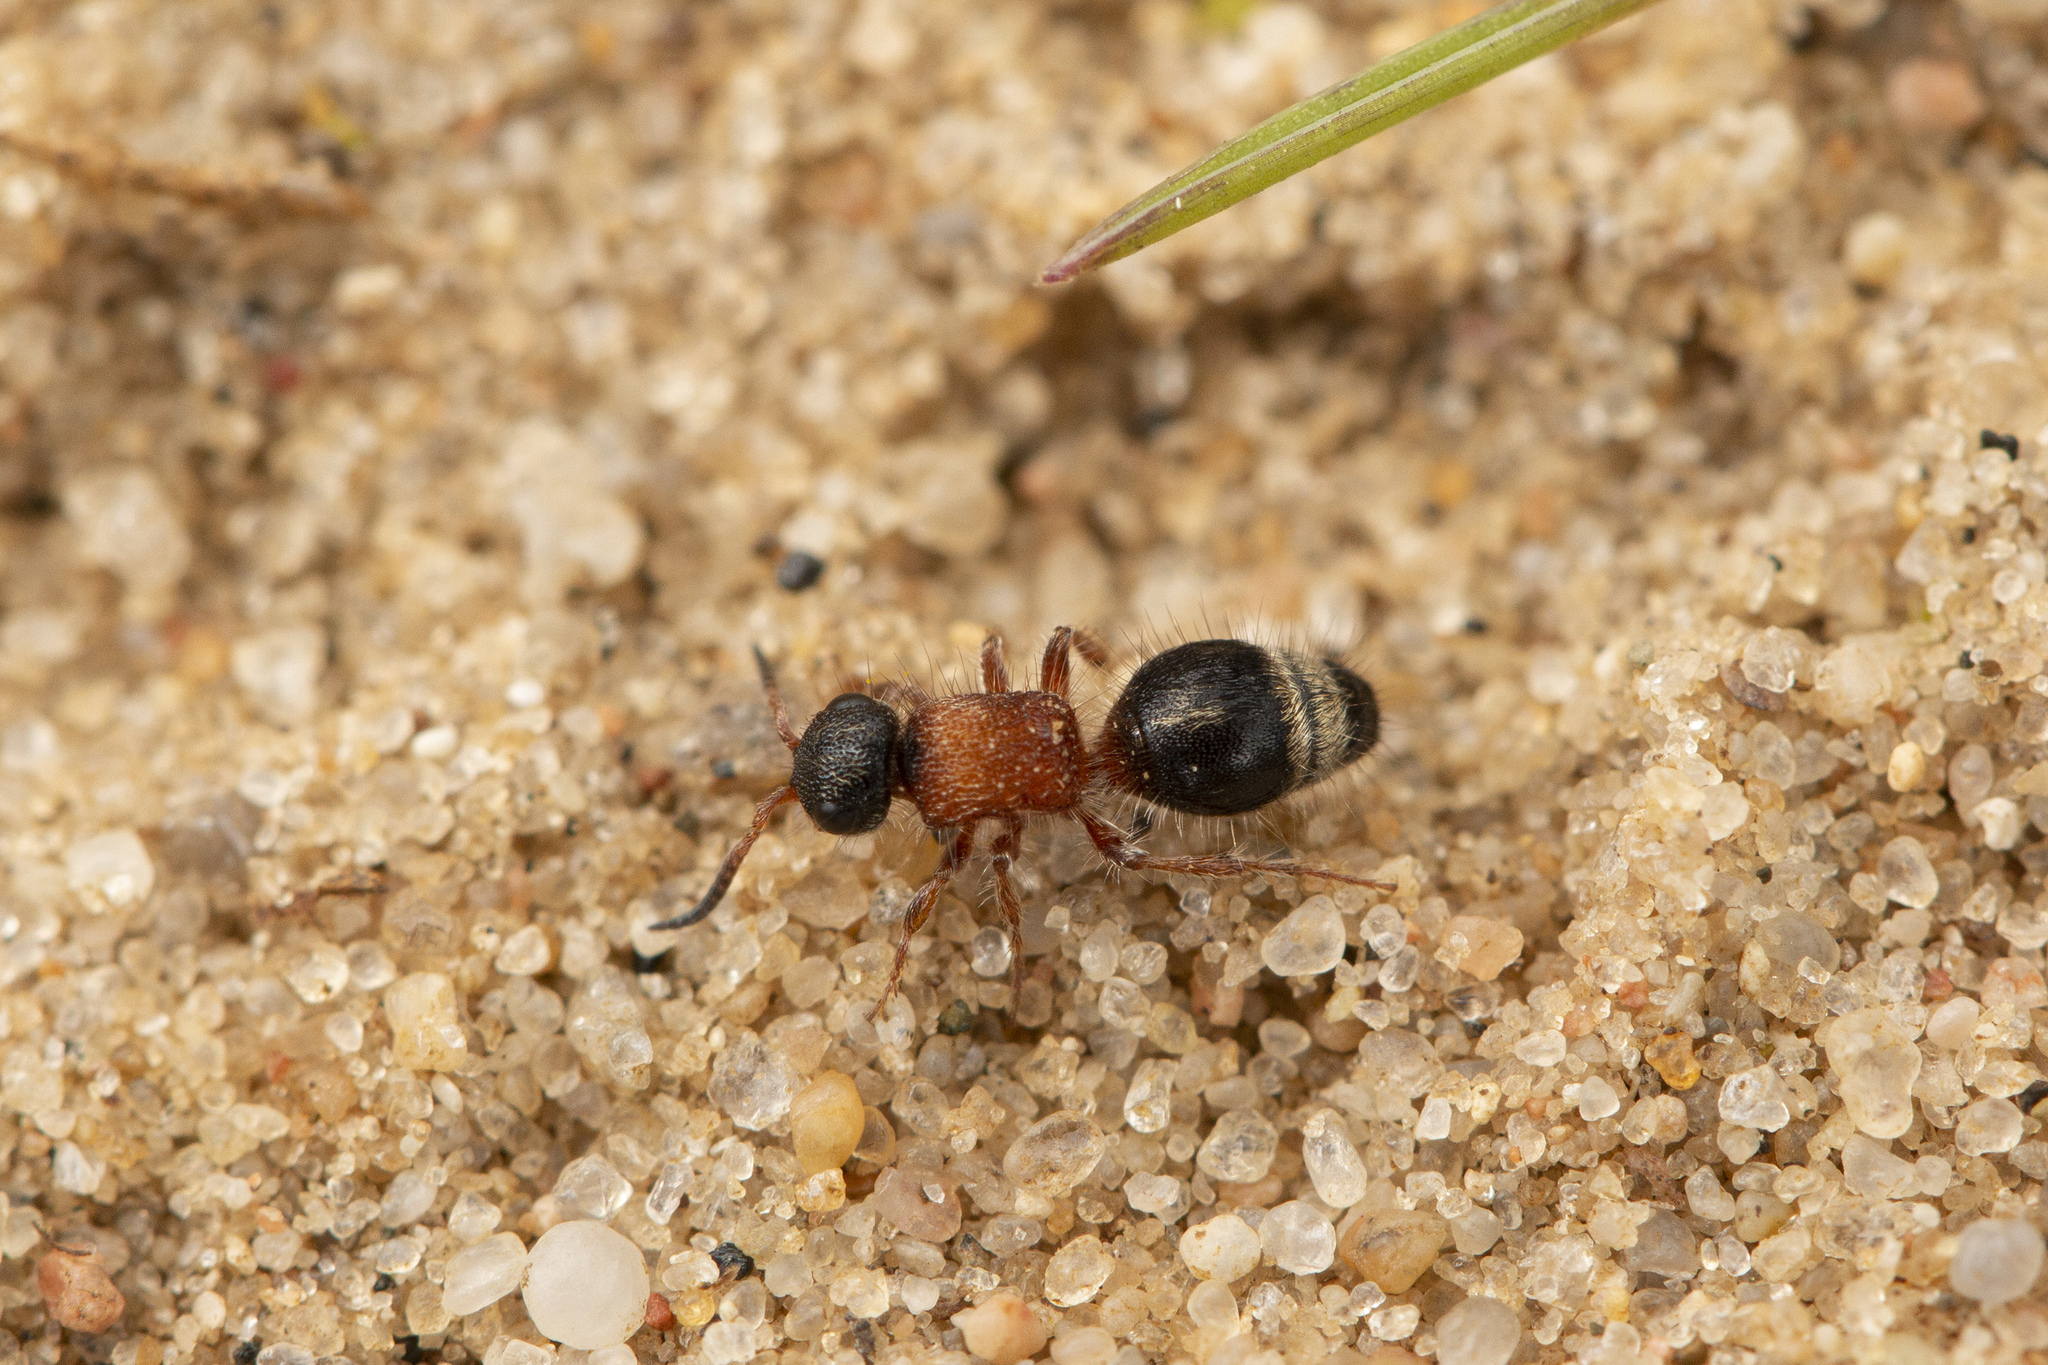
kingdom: Animalia
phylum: Arthropoda
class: Insecta
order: Hymenoptera
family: Mutillidae
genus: Smicromyrme
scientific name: Smicromyrme rufipes
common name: Small velvet ant
